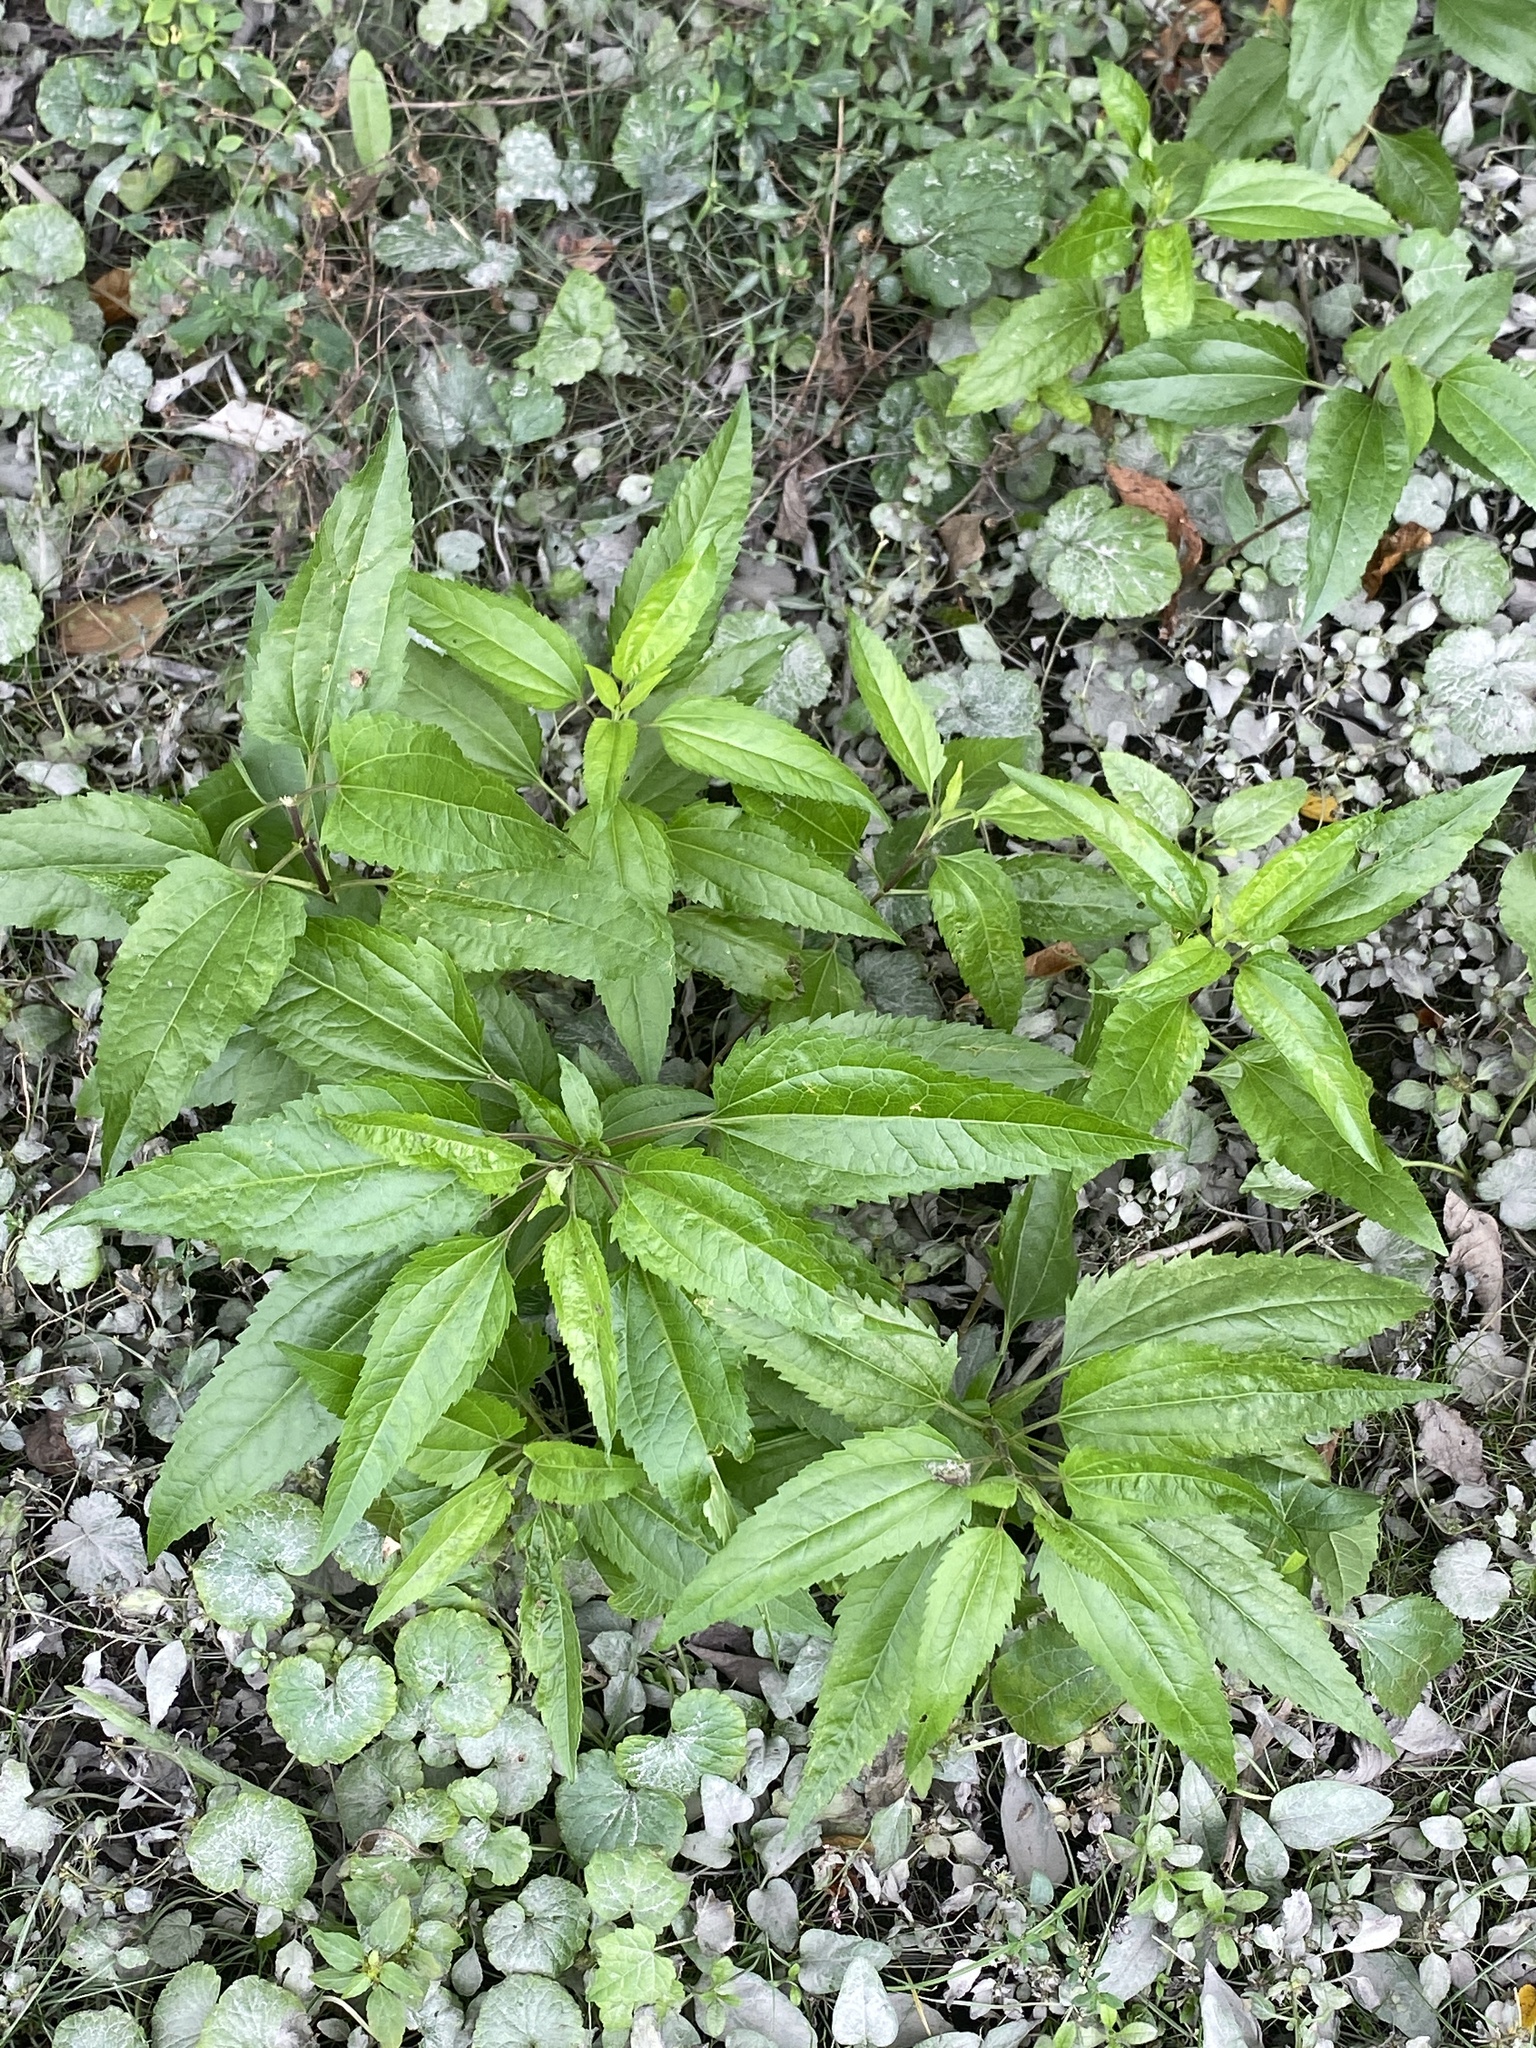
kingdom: Plantae
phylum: Tracheophyta
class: Magnoliopsida
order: Asterales
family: Asteraceae
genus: Eupatorium
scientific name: Eupatorium serotinum
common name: Late boneset
